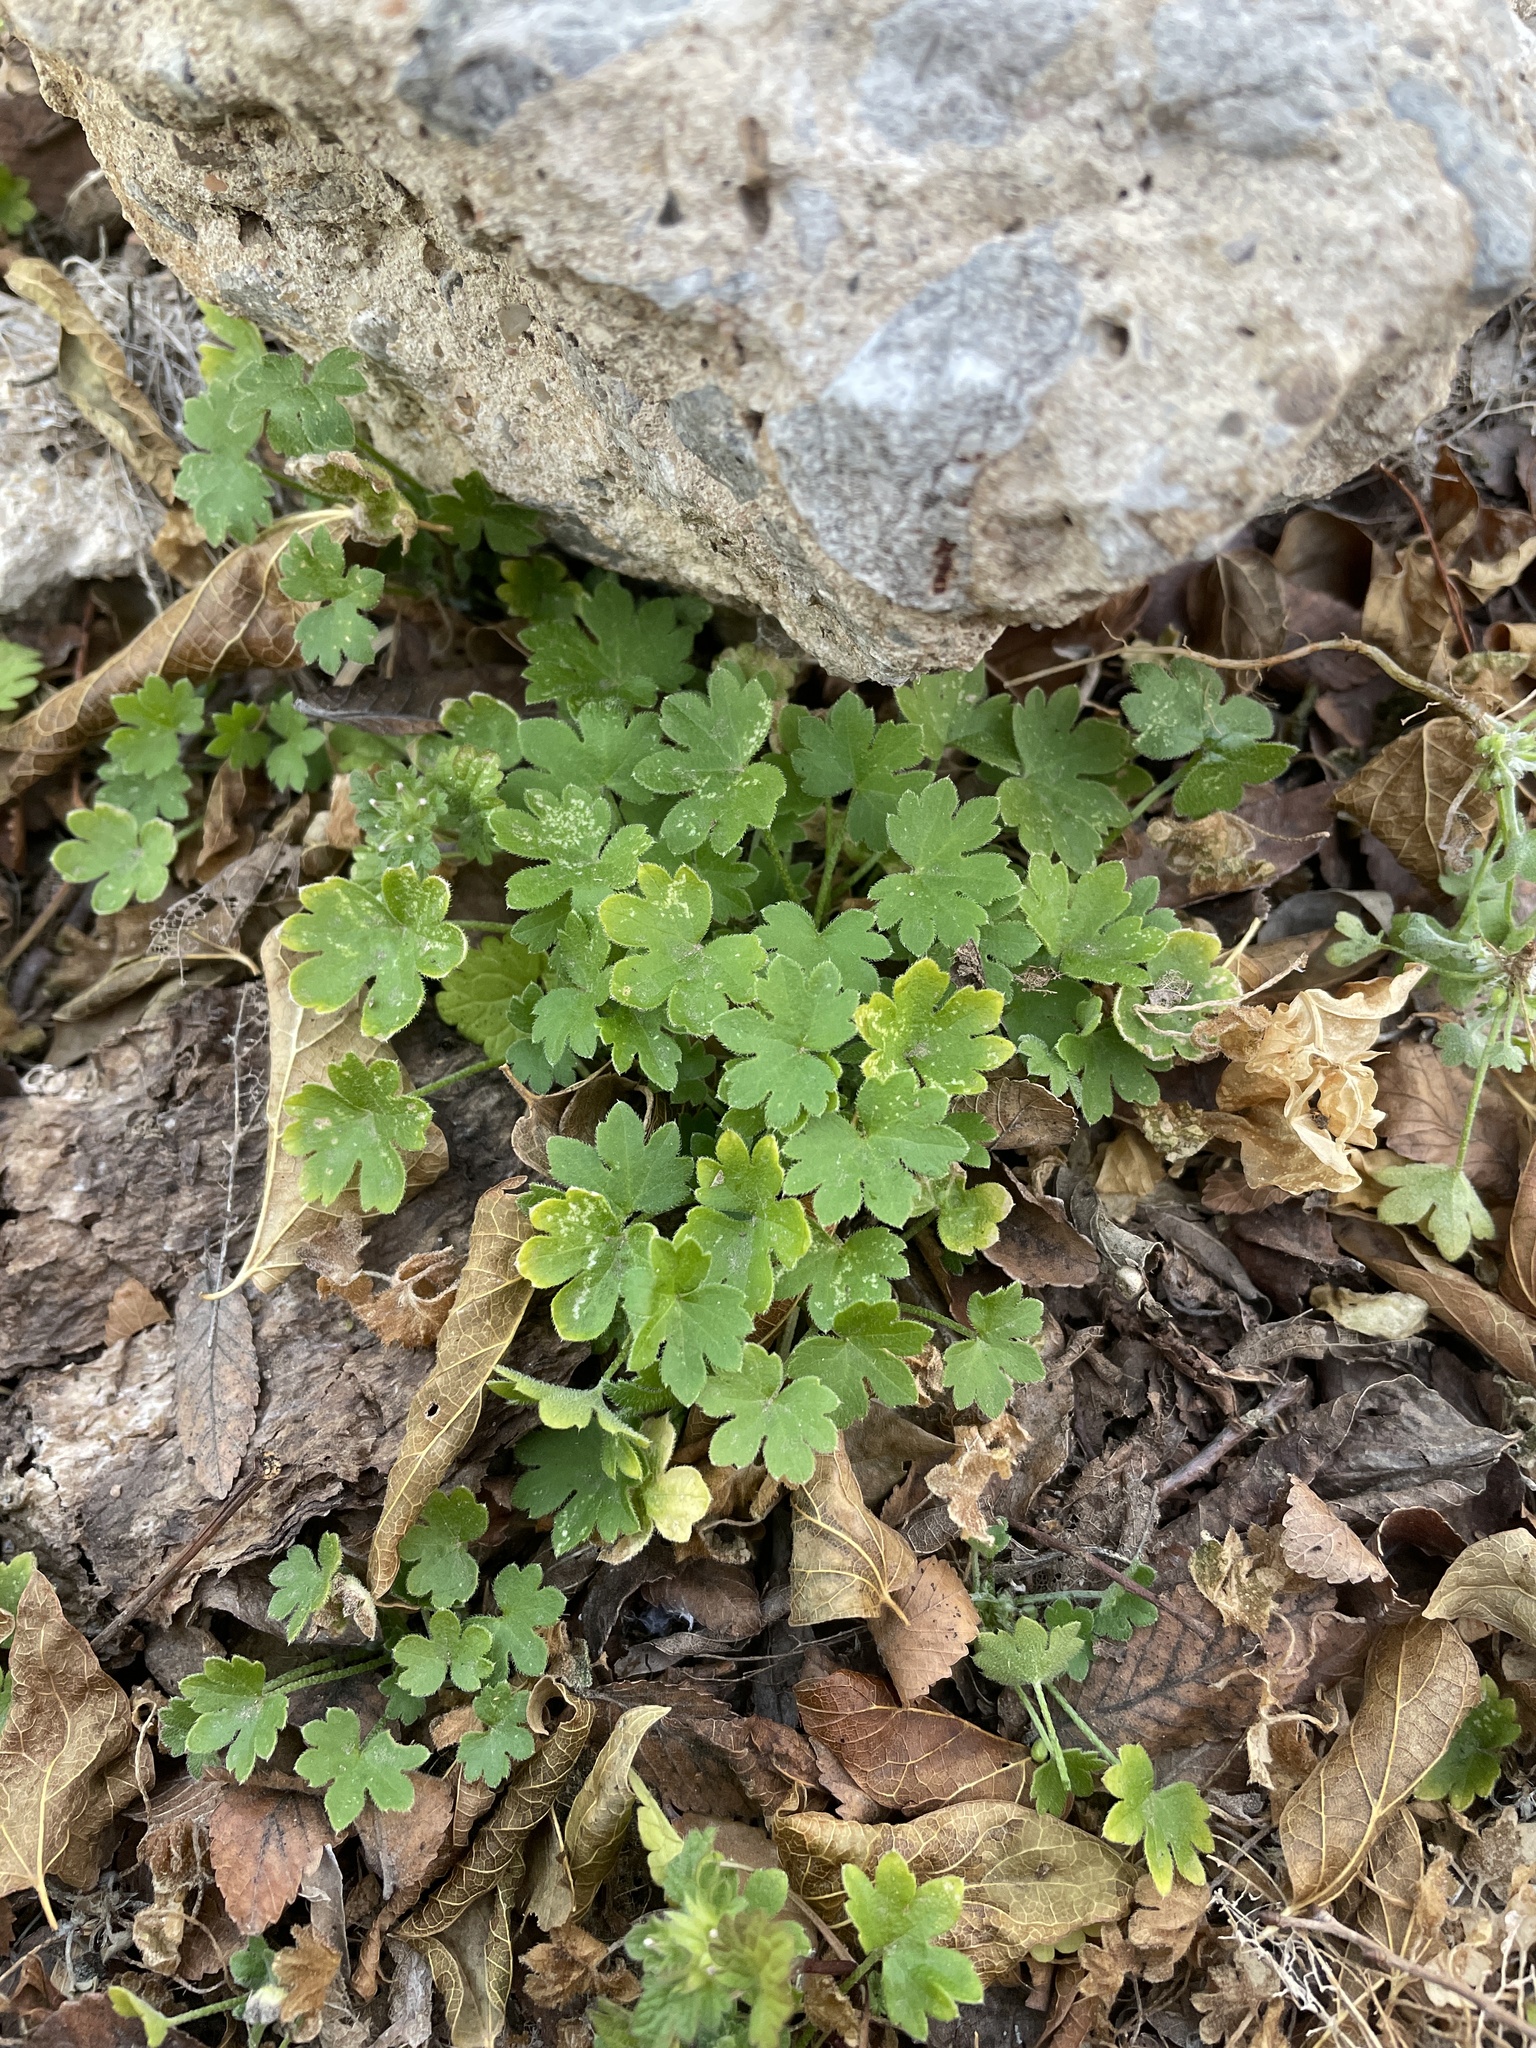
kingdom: Plantae
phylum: Tracheophyta
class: Magnoliopsida
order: Apiales
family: Apiaceae
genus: Bowlesia
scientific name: Bowlesia incana
